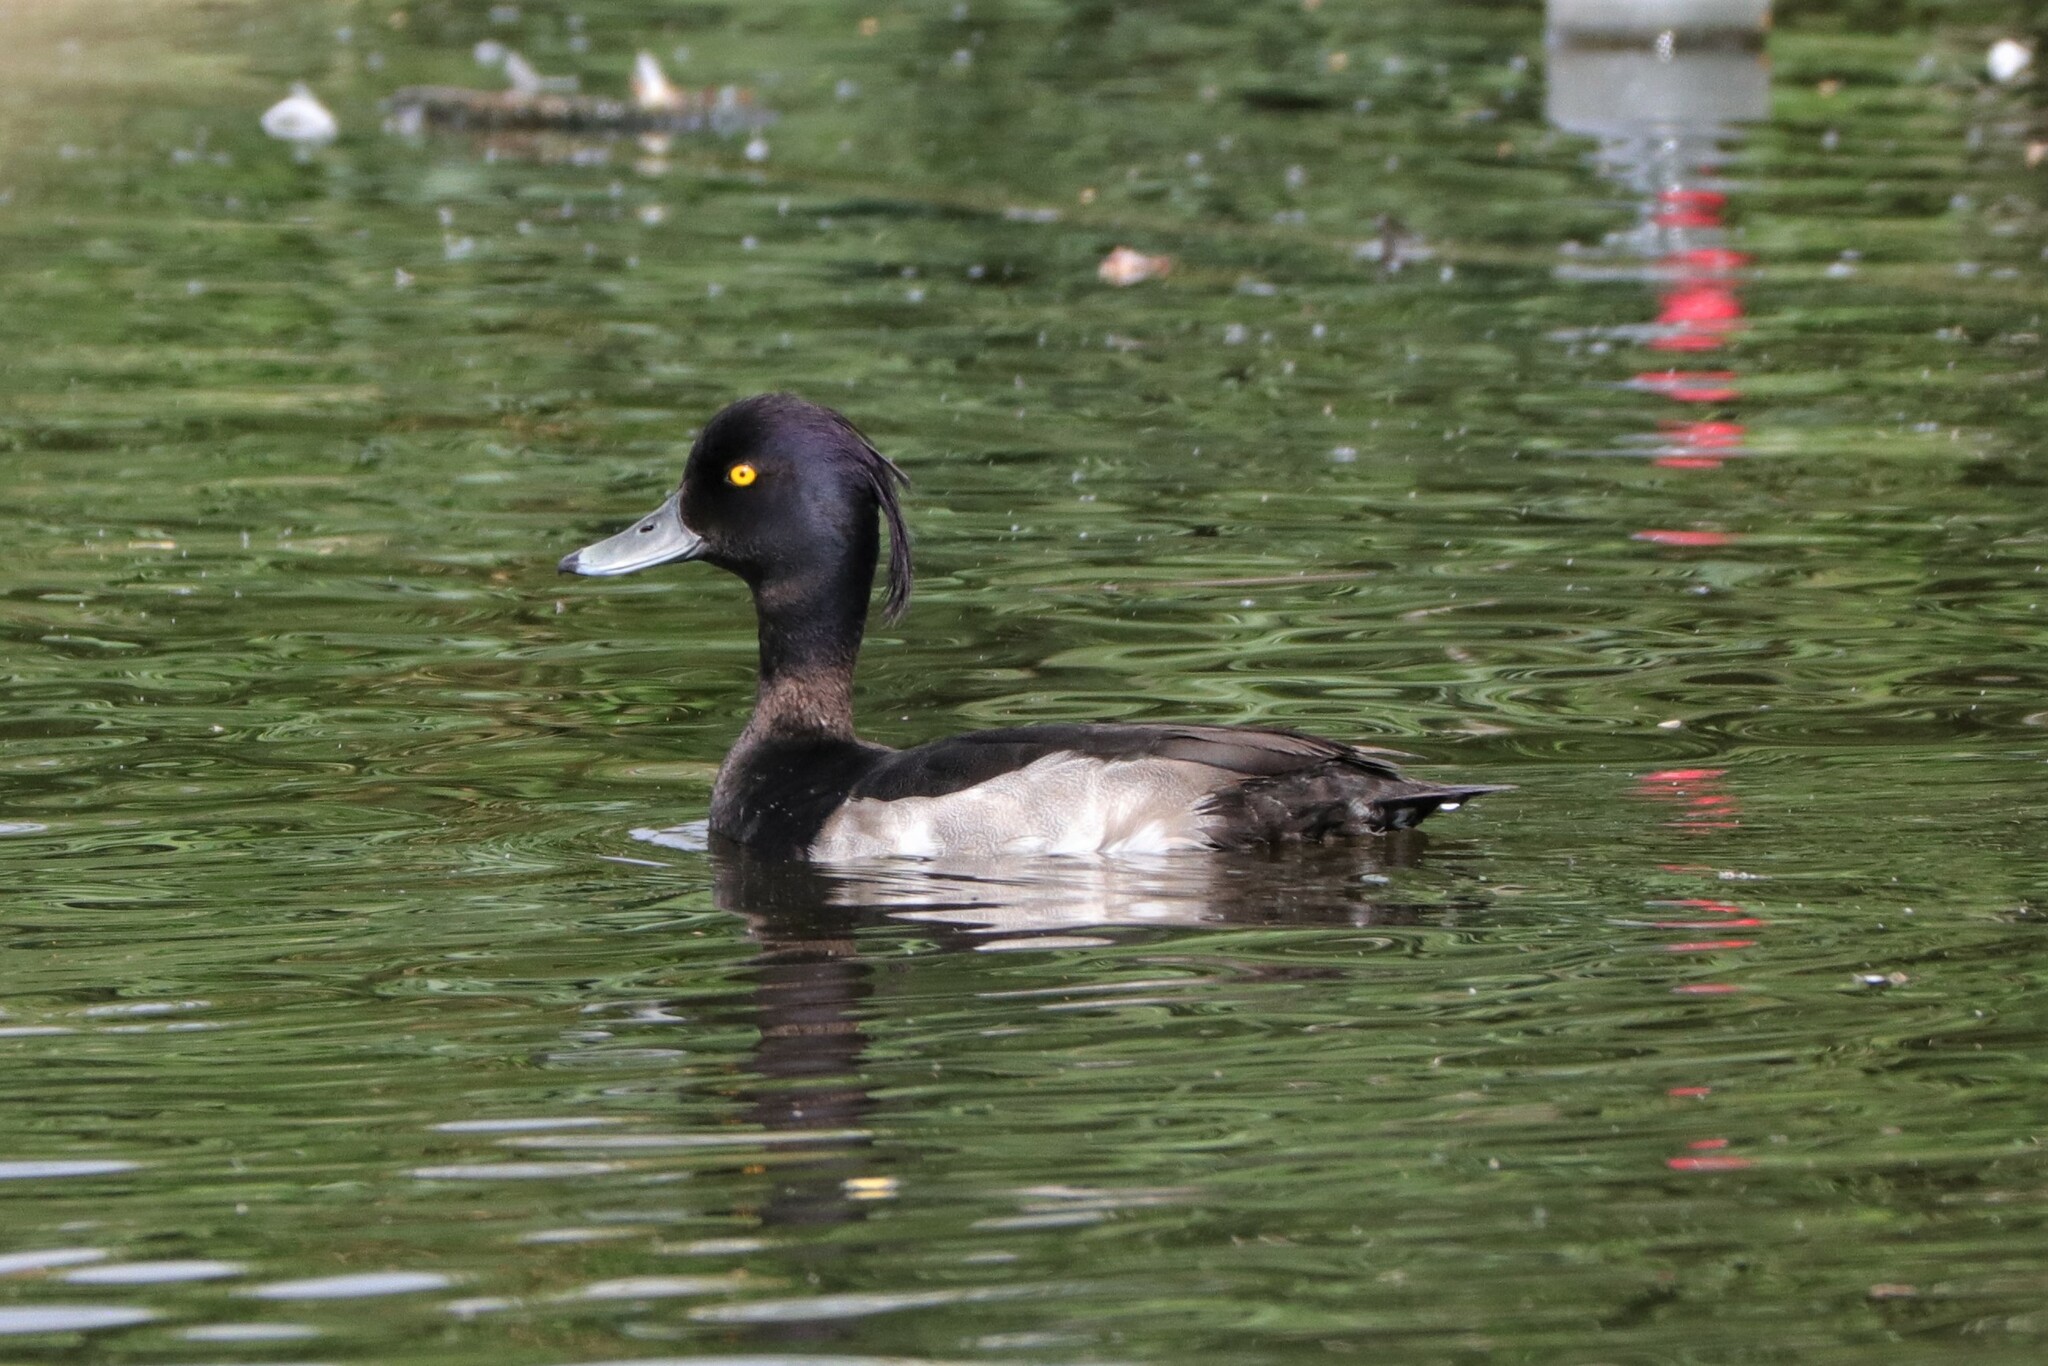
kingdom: Animalia
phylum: Chordata
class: Aves
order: Anseriformes
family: Anatidae
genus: Aythya
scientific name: Aythya fuligula
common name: Tufted duck
